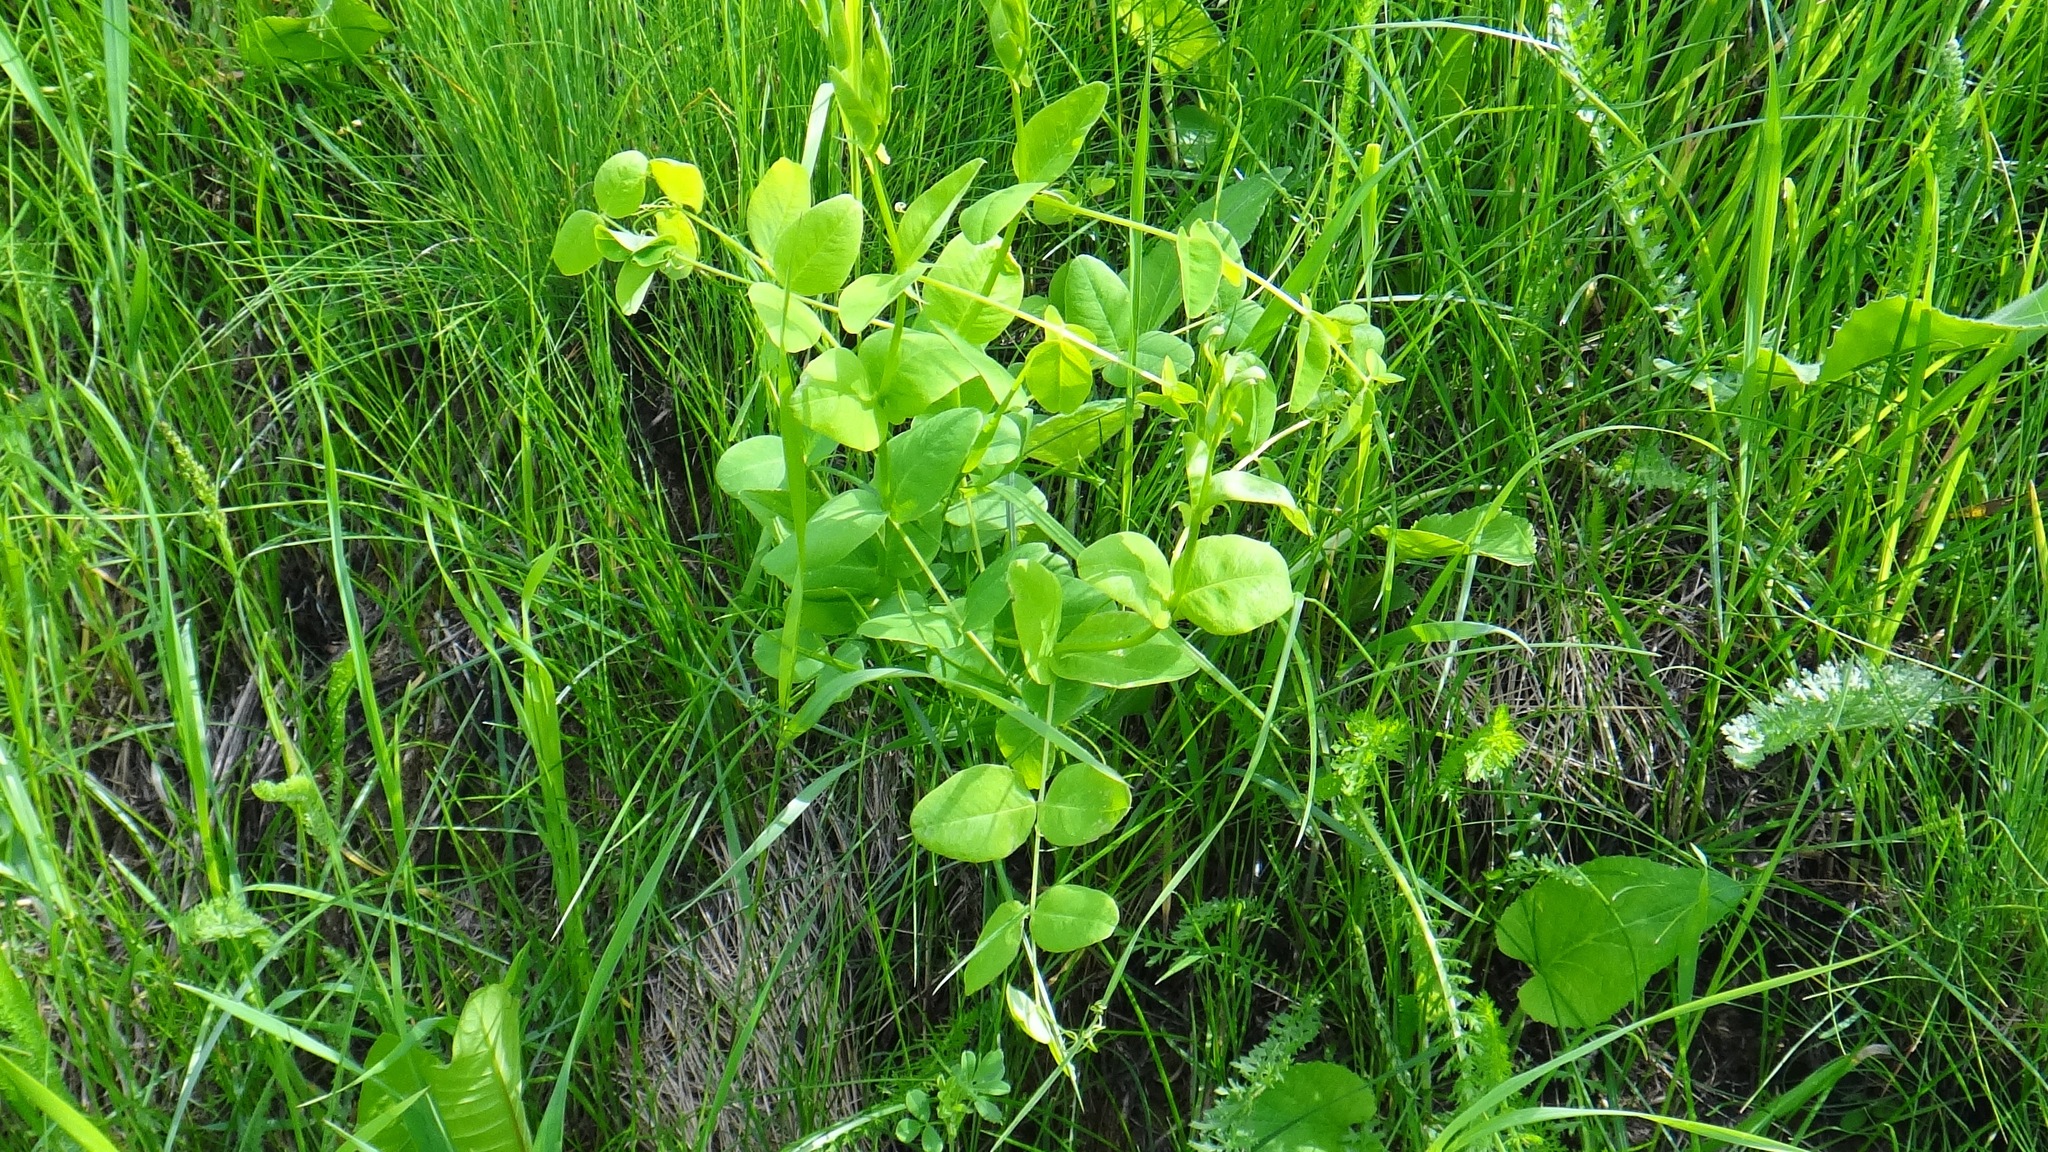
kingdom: Plantae
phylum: Tracheophyta
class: Magnoliopsida
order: Fabales
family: Fabaceae
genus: Vicia
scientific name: Vicia pisiformis
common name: Pale-flower vetch
